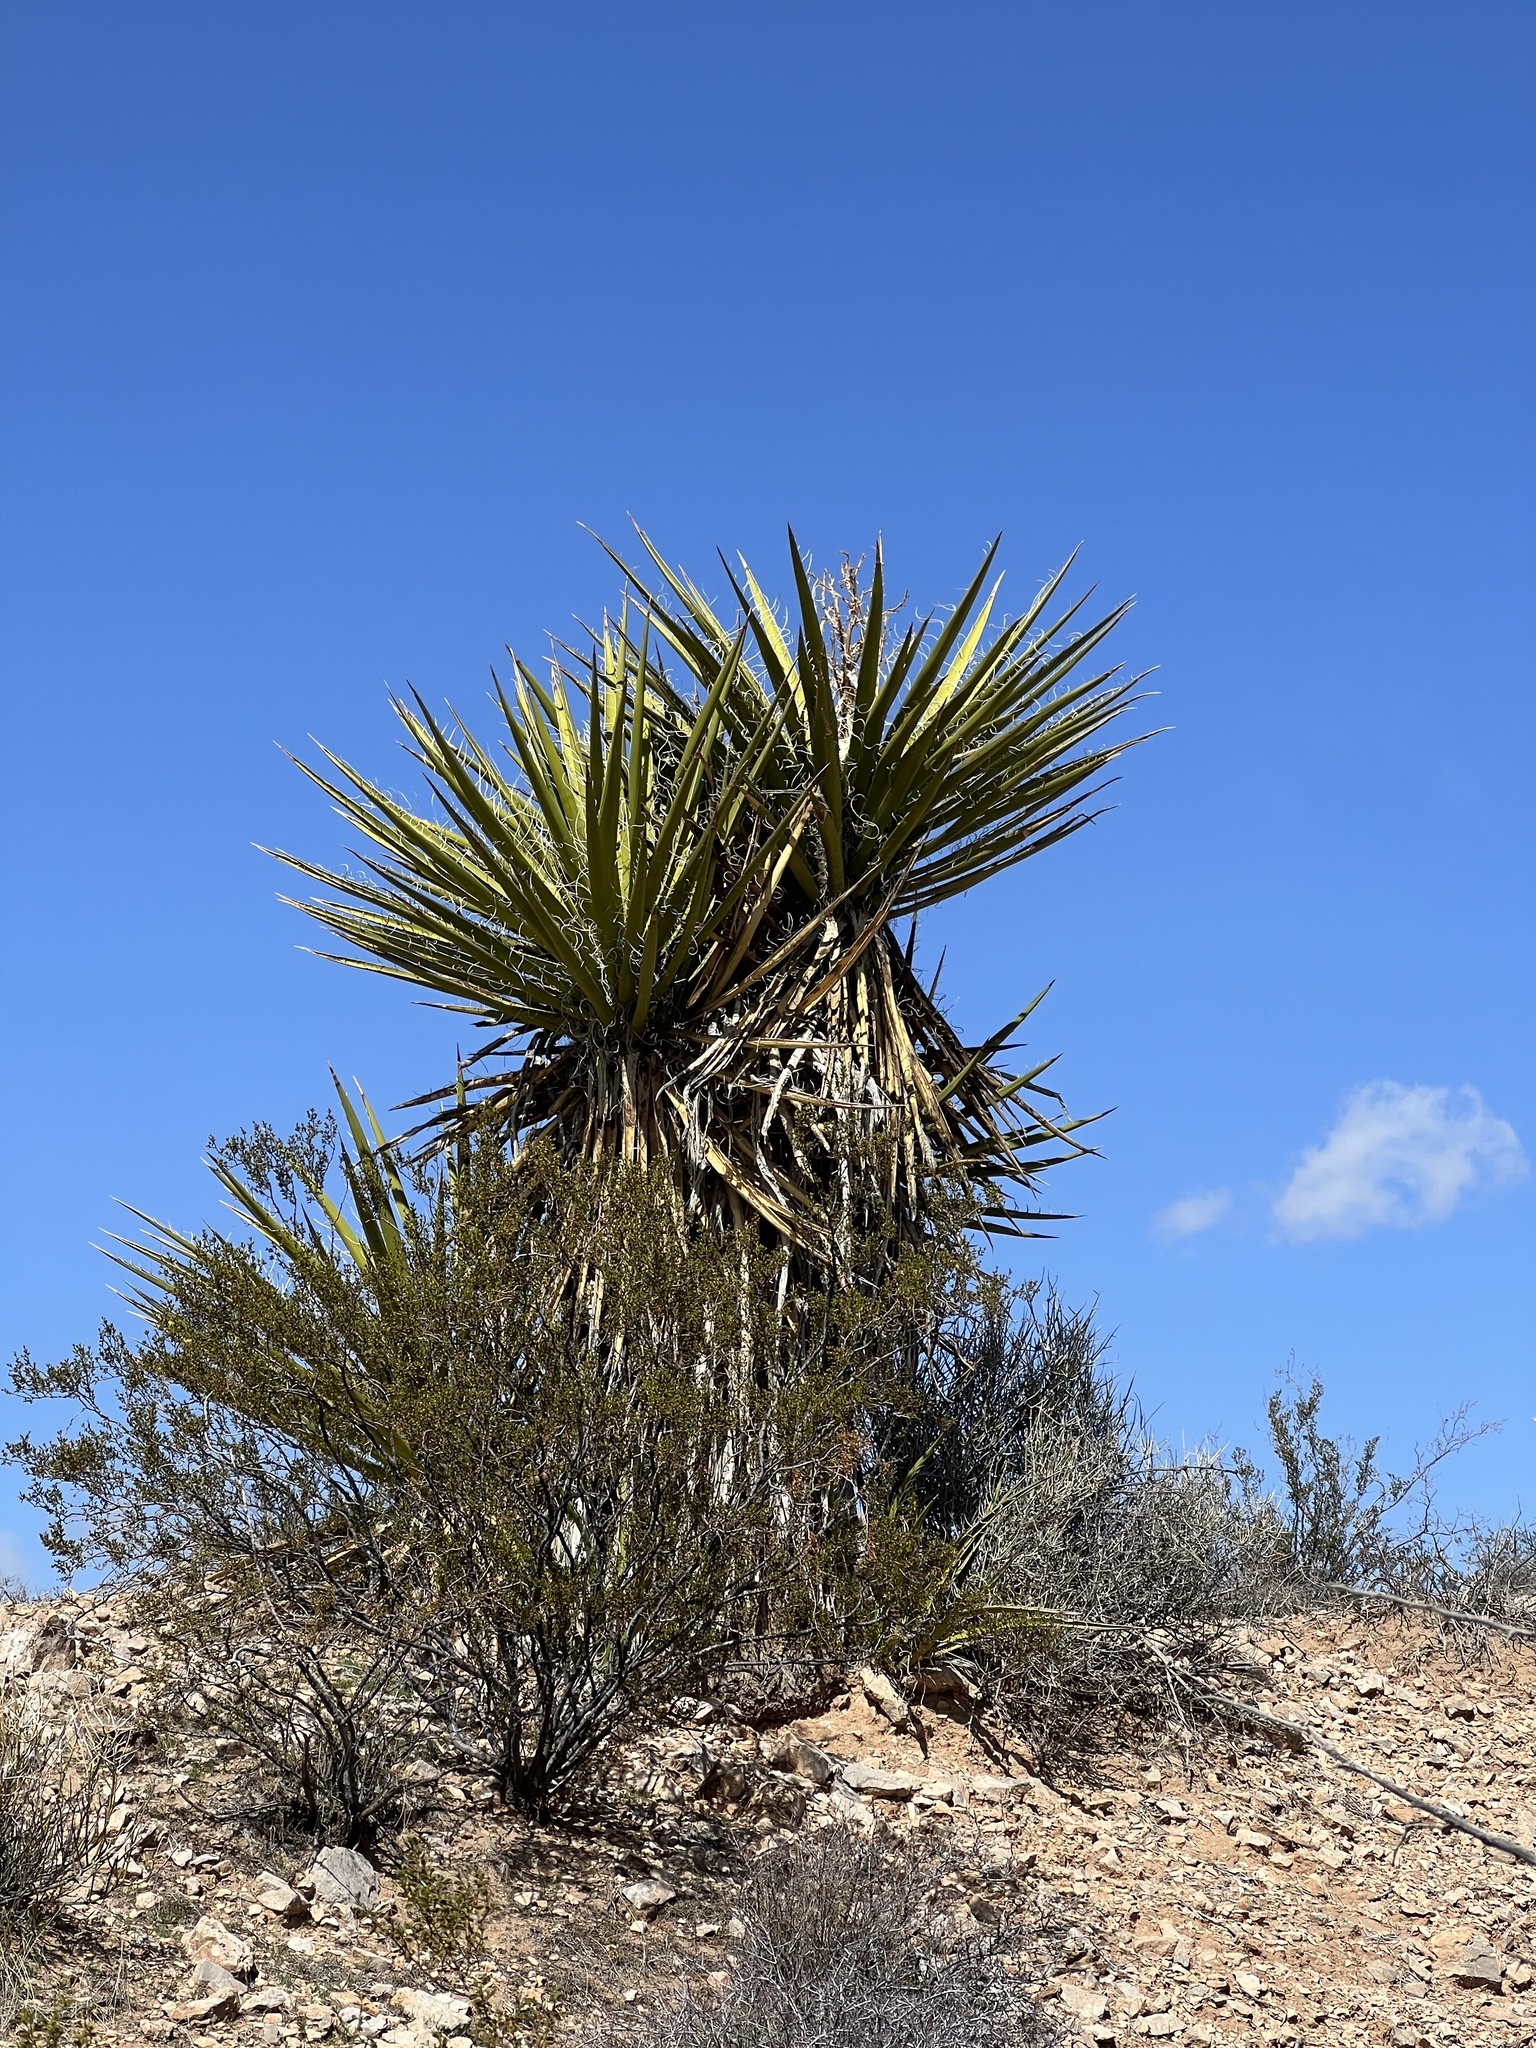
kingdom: Plantae
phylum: Tracheophyta
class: Liliopsida
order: Asparagales
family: Asparagaceae
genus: Yucca
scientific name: Yucca schidigera
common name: Mojave yucca
